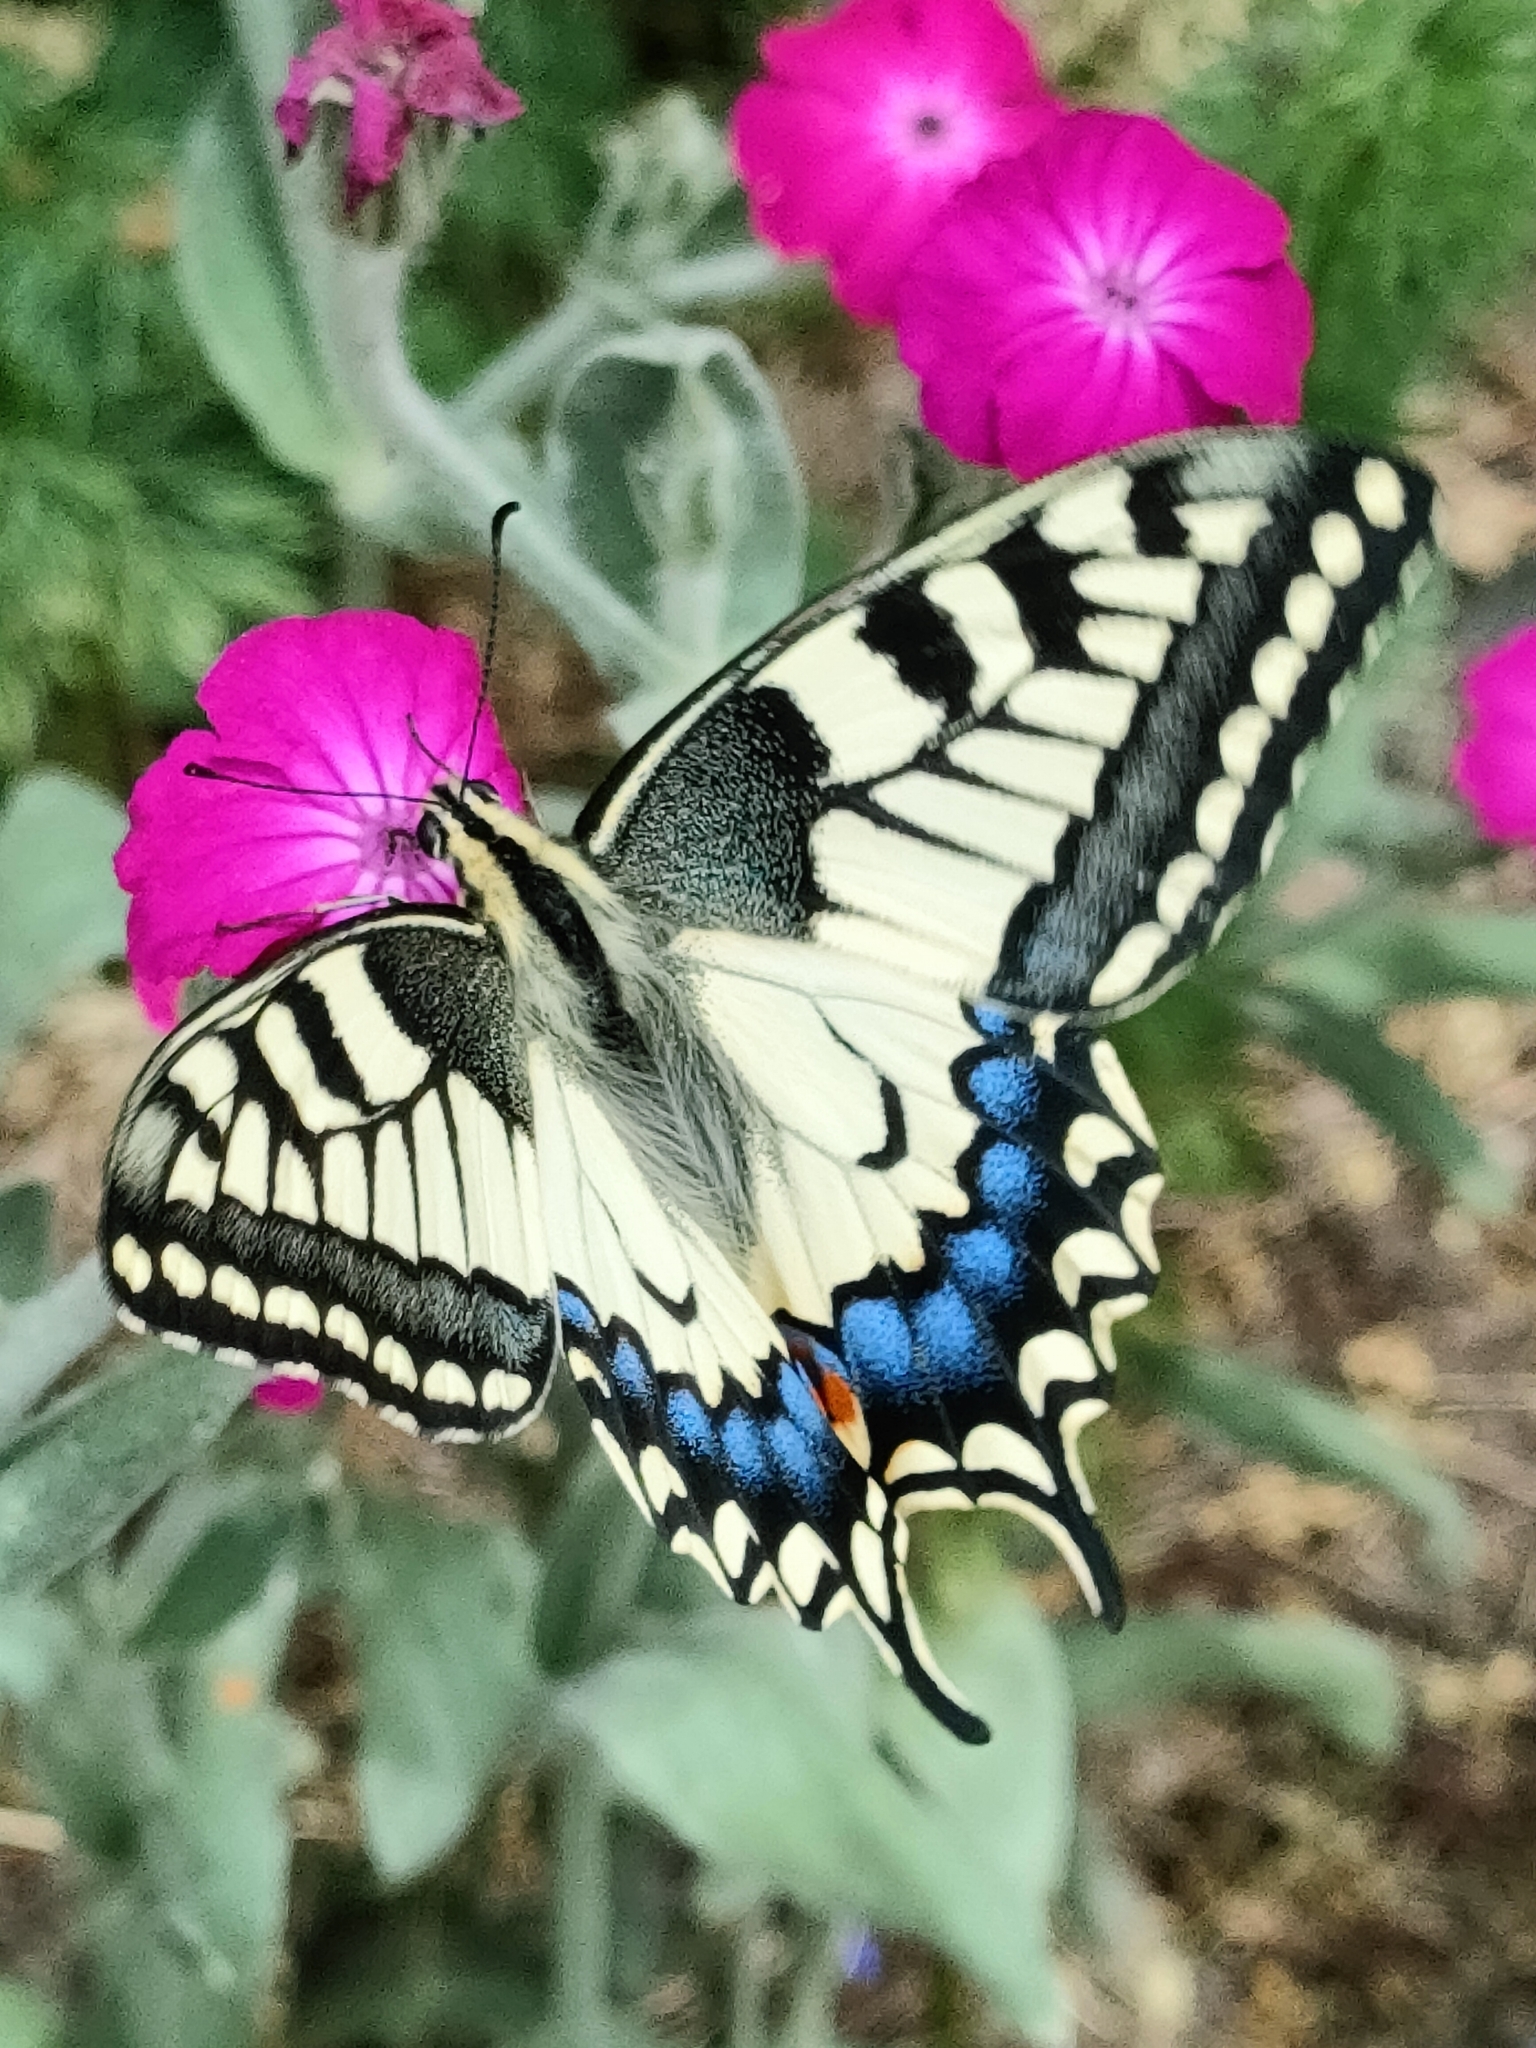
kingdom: Animalia
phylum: Arthropoda
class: Insecta
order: Lepidoptera
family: Papilionidae
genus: Papilio
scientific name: Papilio machaon
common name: Swallowtail
